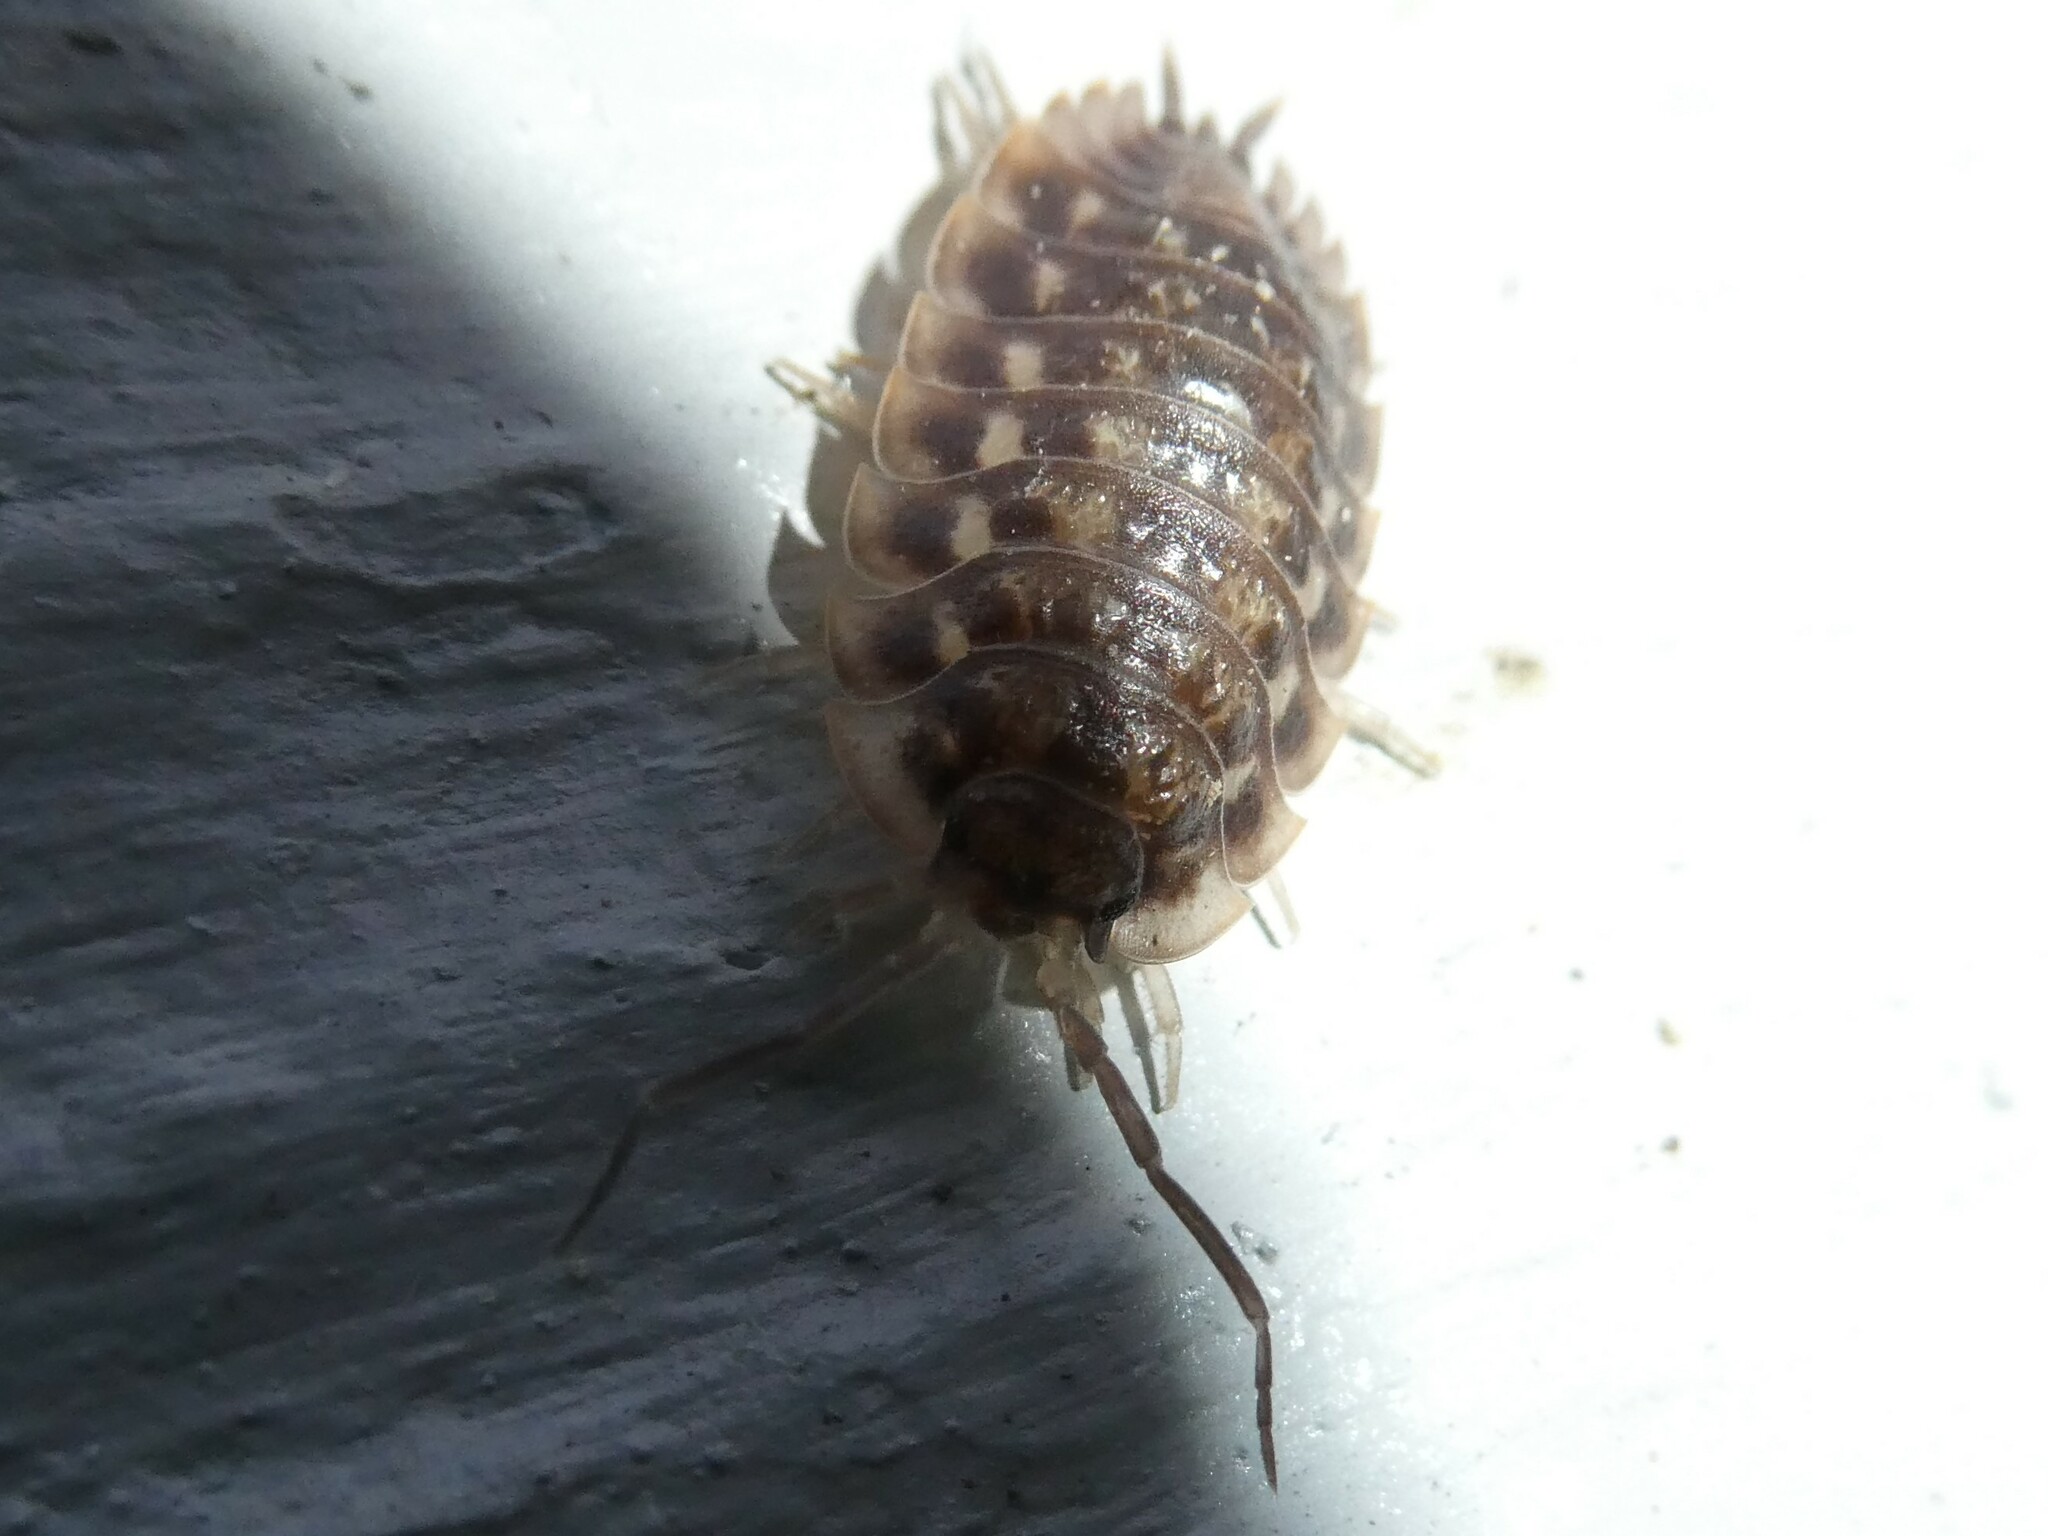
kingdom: Animalia
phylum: Arthropoda
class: Malacostraca
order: Isopoda
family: Oniscidae
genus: Oniscus
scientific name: Oniscus asellus
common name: Common shiny woodlouse
